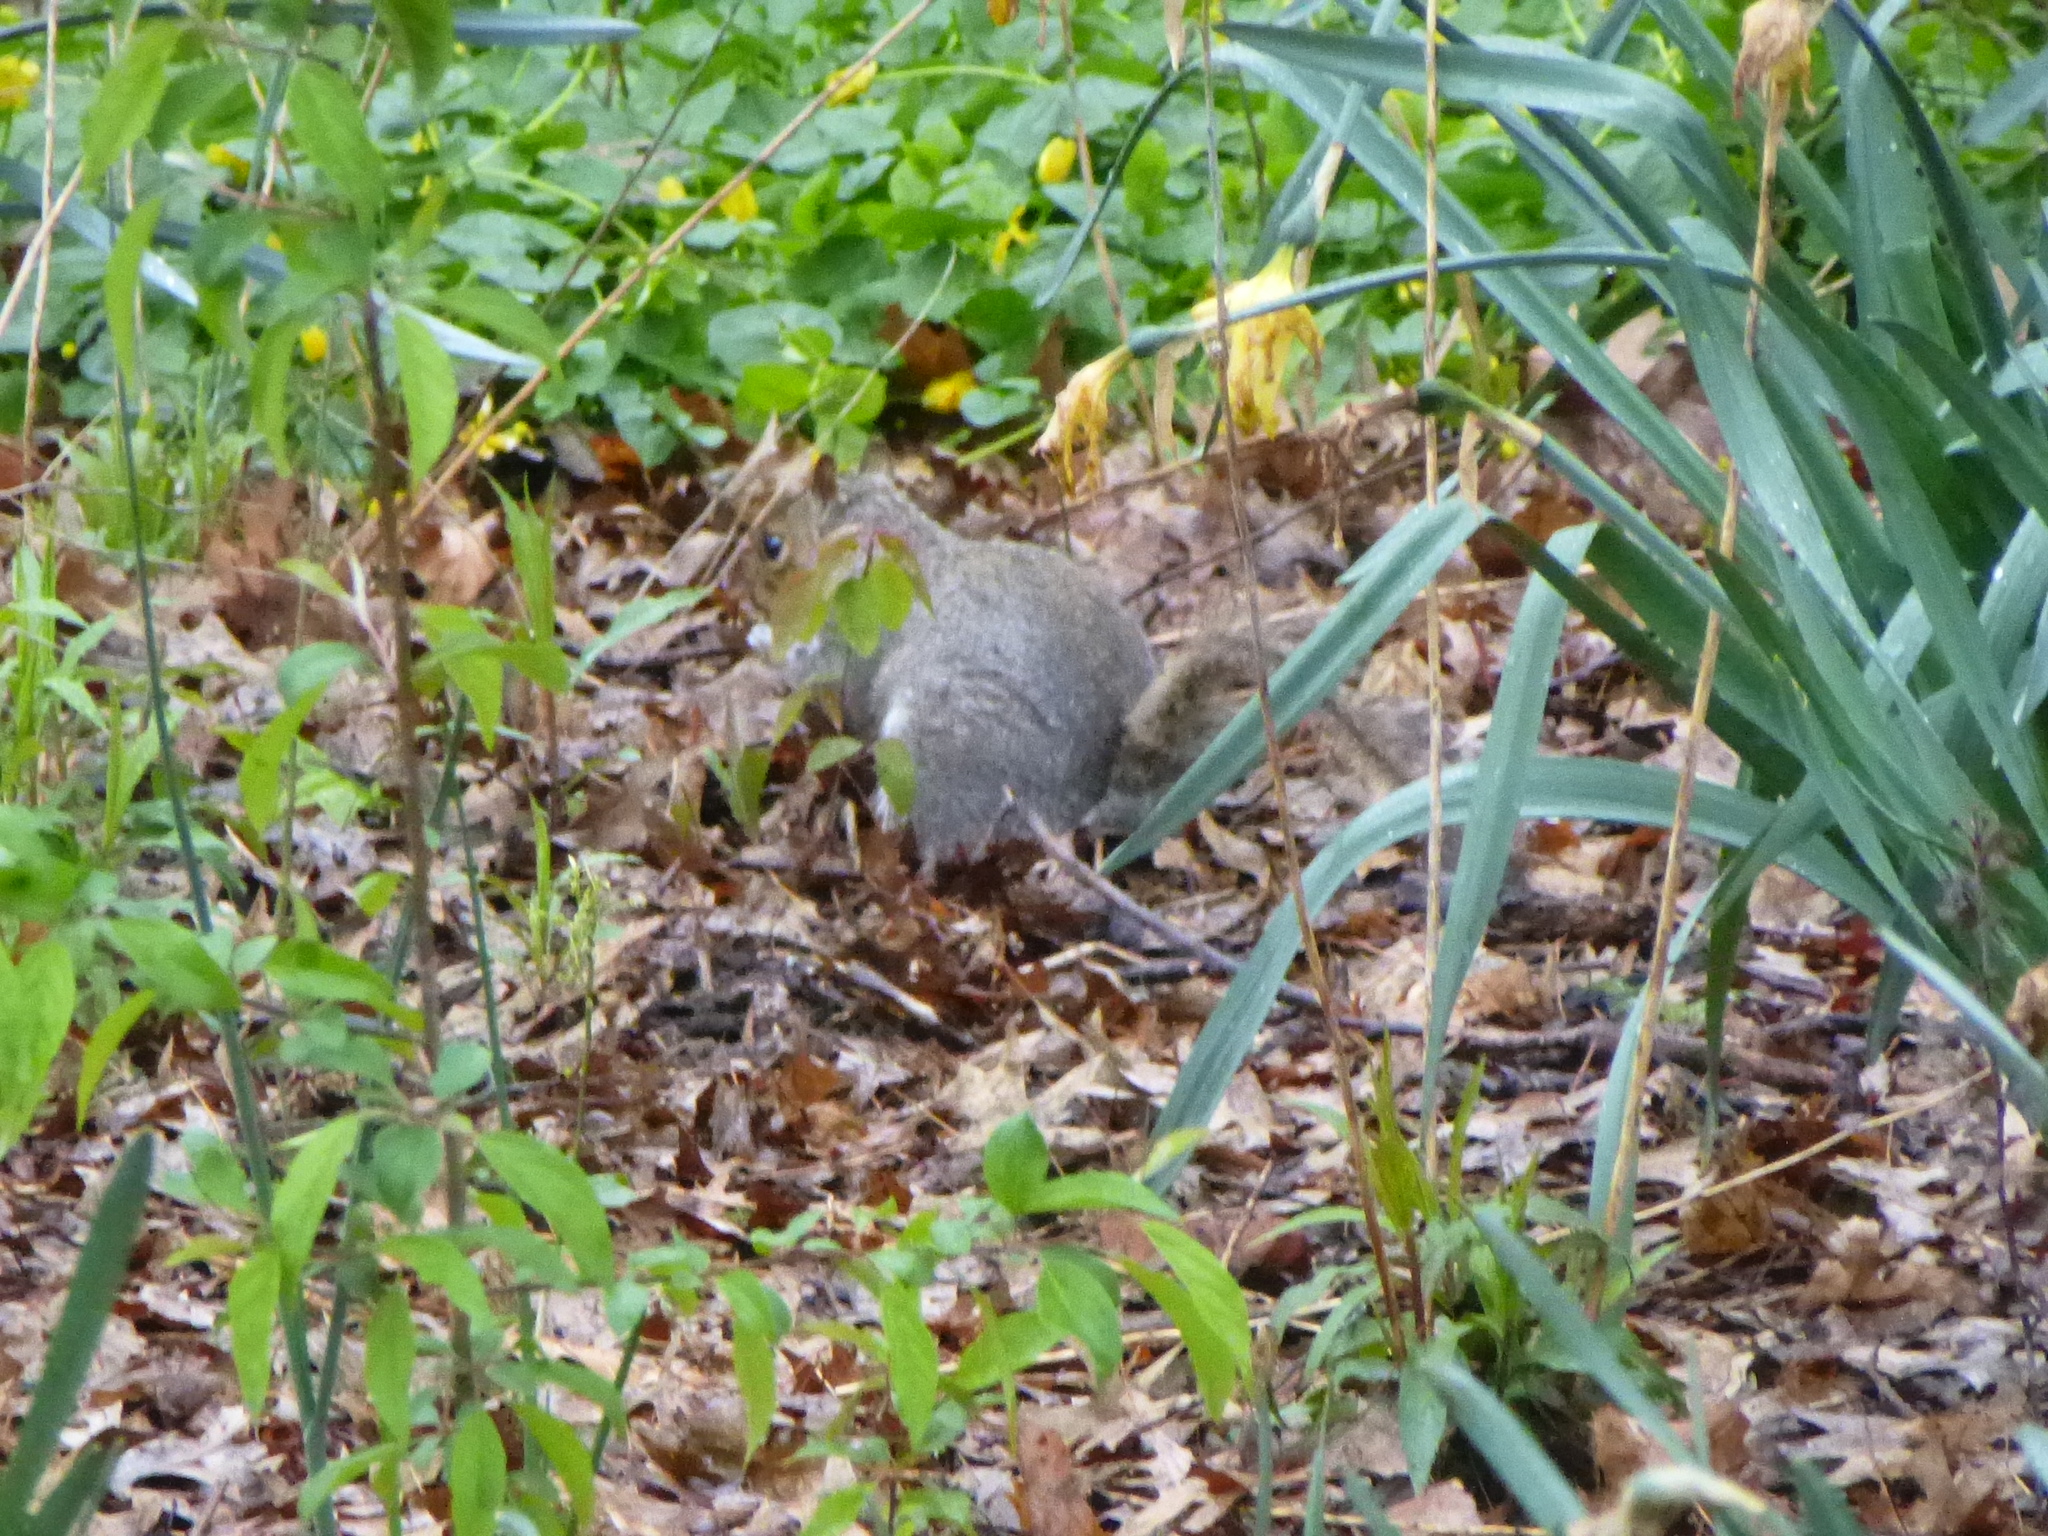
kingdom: Animalia
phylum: Chordata
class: Mammalia
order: Rodentia
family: Sciuridae
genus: Sciurus
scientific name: Sciurus carolinensis
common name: Eastern gray squirrel
